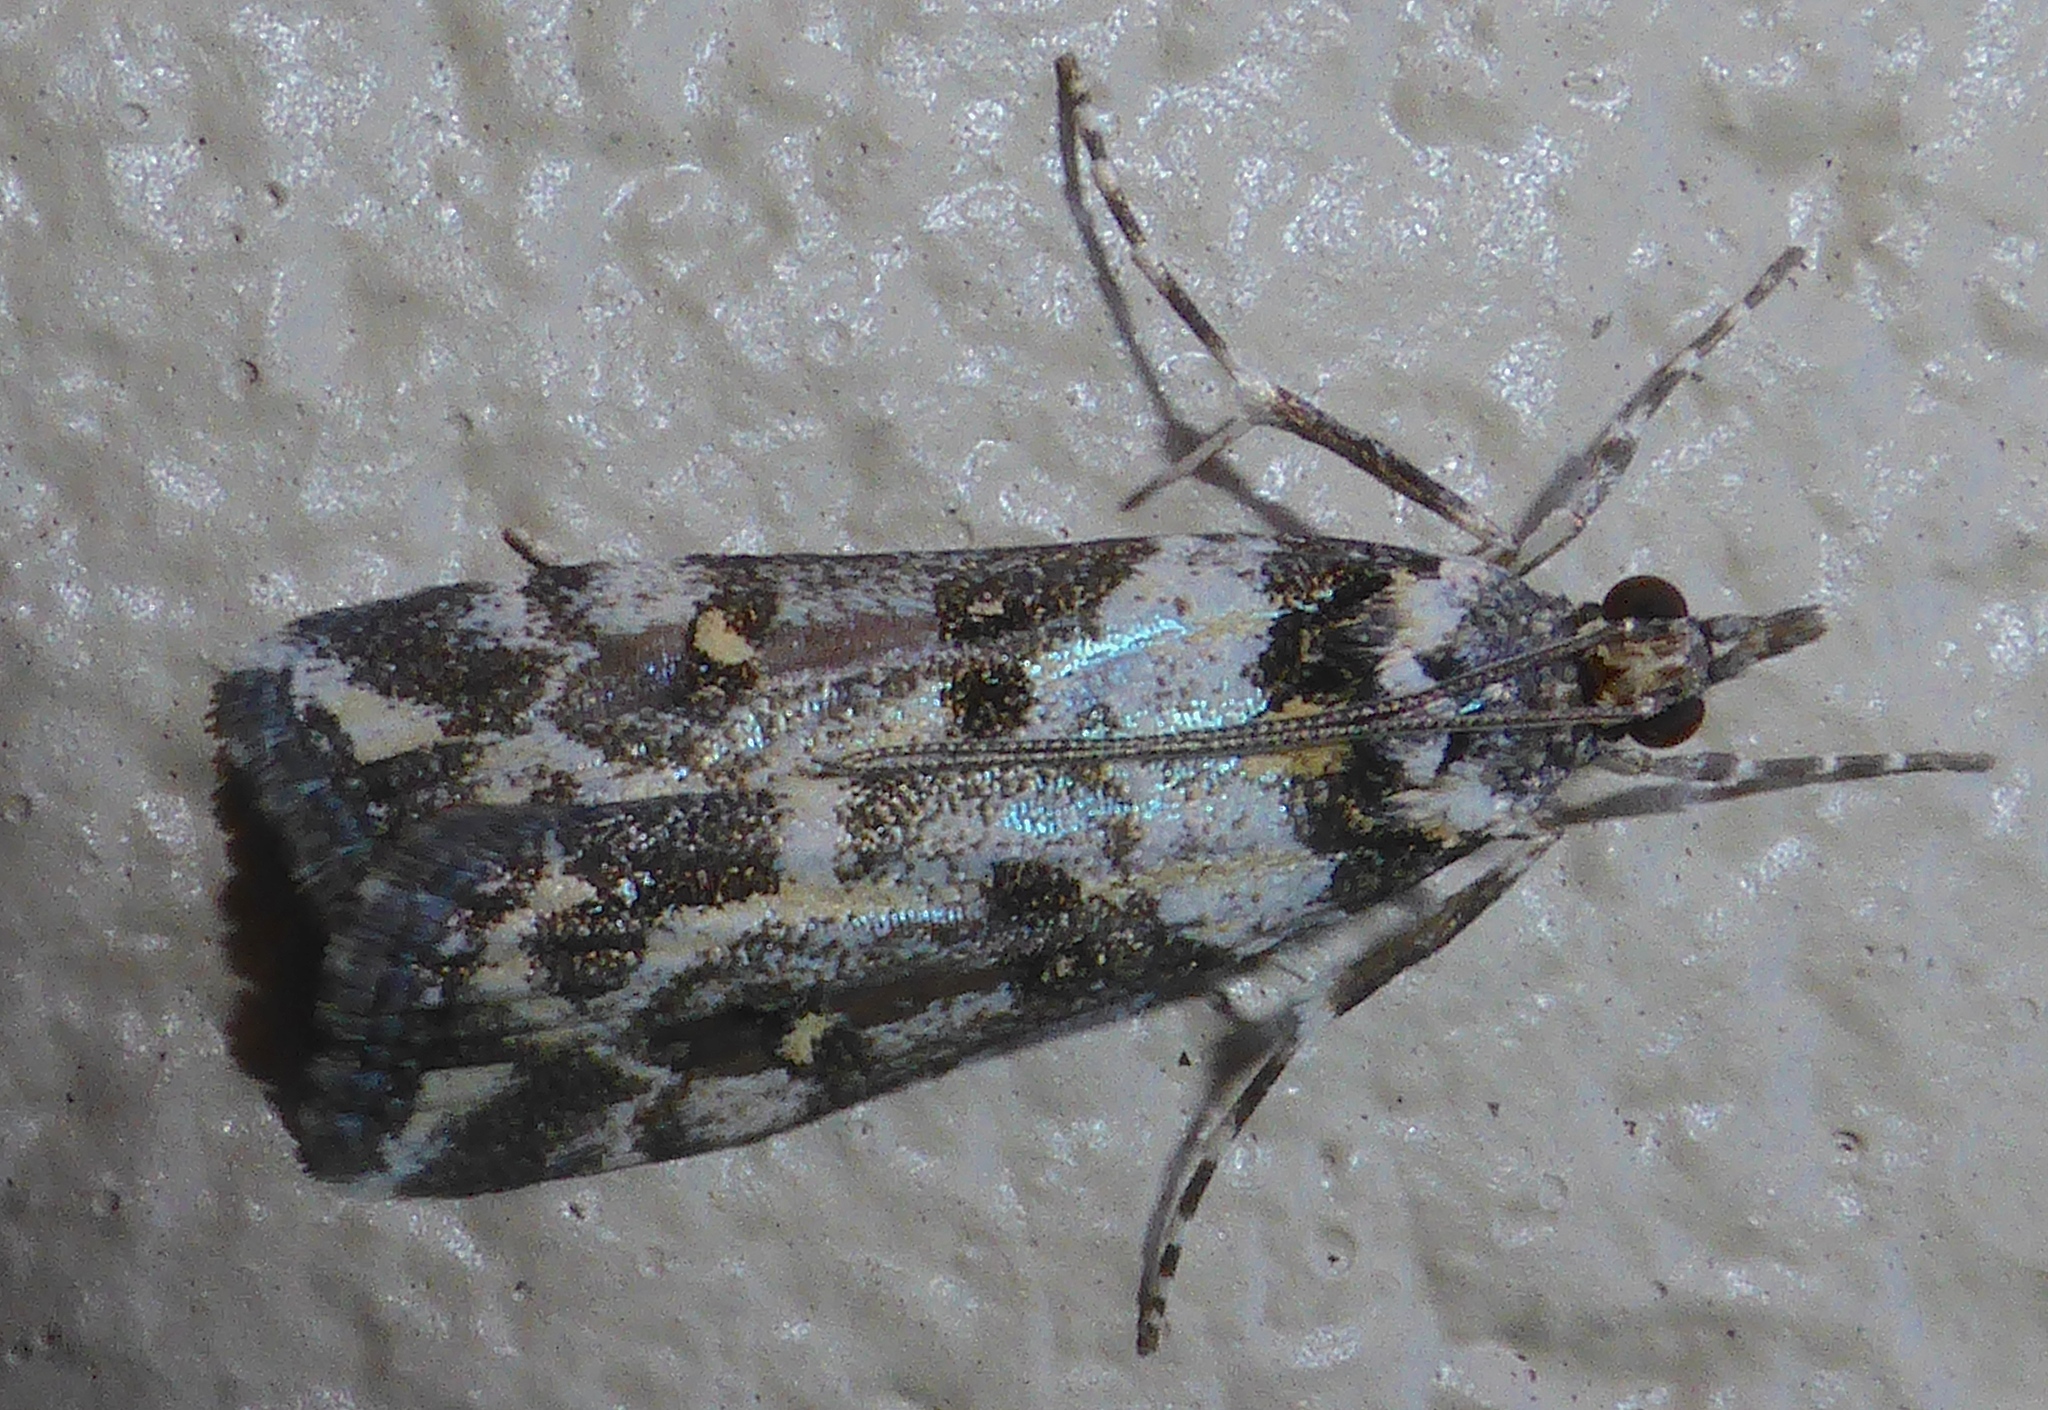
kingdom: Animalia
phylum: Arthropoda
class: Insecta
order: Lepidoptera
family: Crambidae
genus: Eudonia
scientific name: Eudonia diphtheralis
